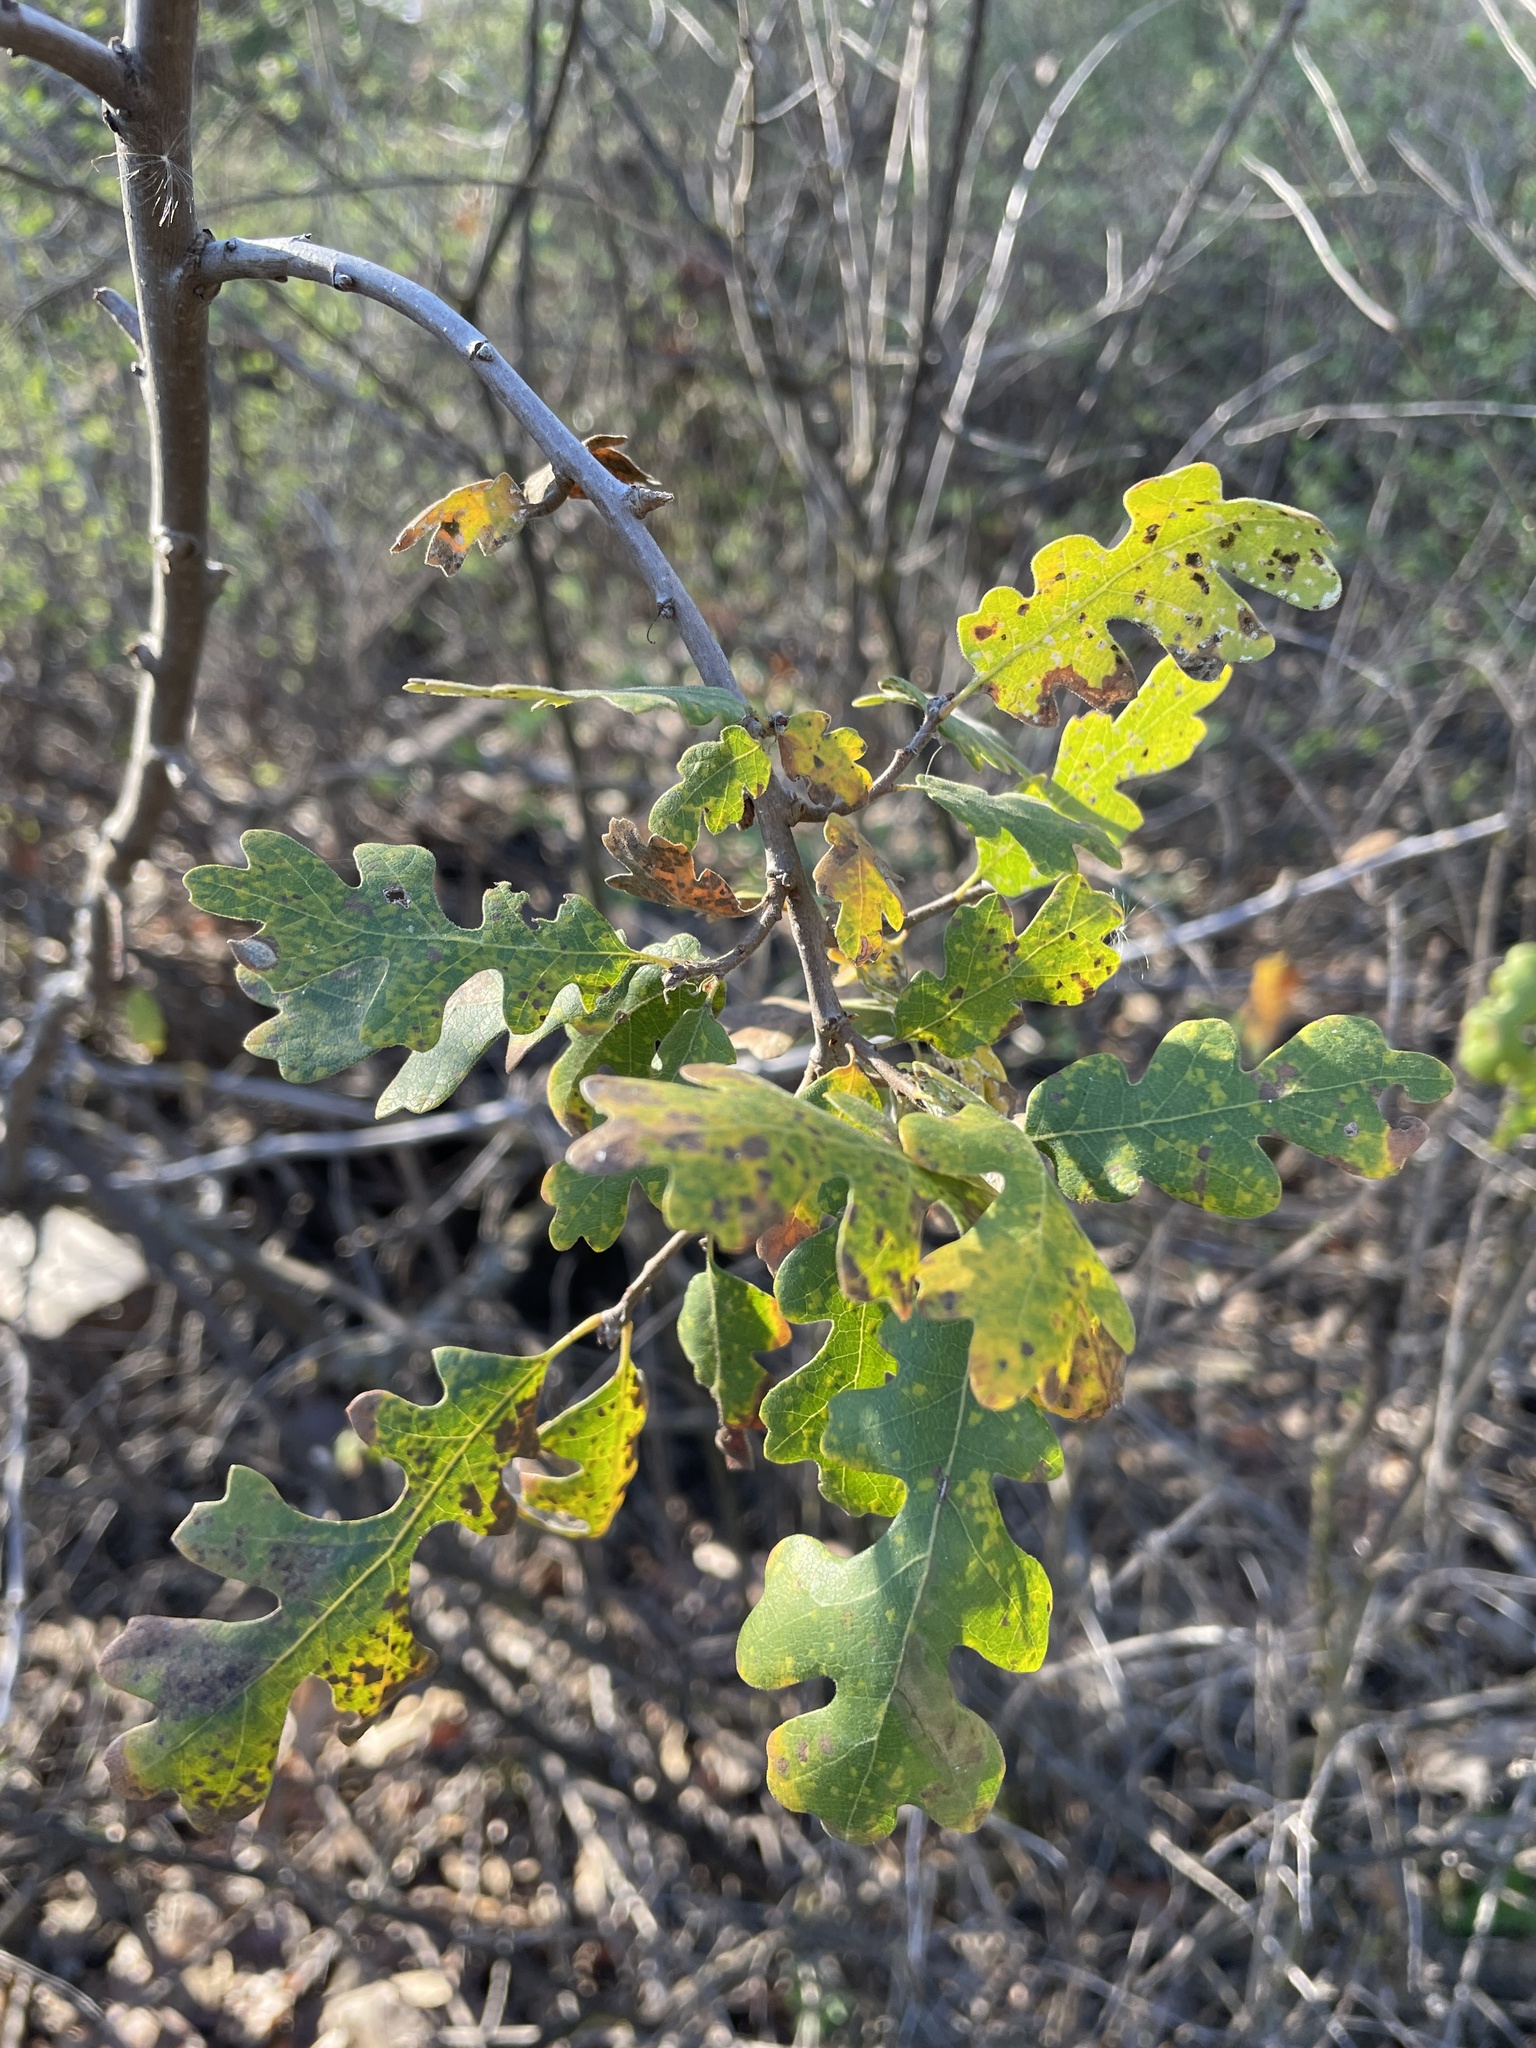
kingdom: Plantae
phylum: Tracheophyta
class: Magnoliopsida
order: Fagales
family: Fagaceae
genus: Quercus
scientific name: Quercus lobata
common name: Valley oak
